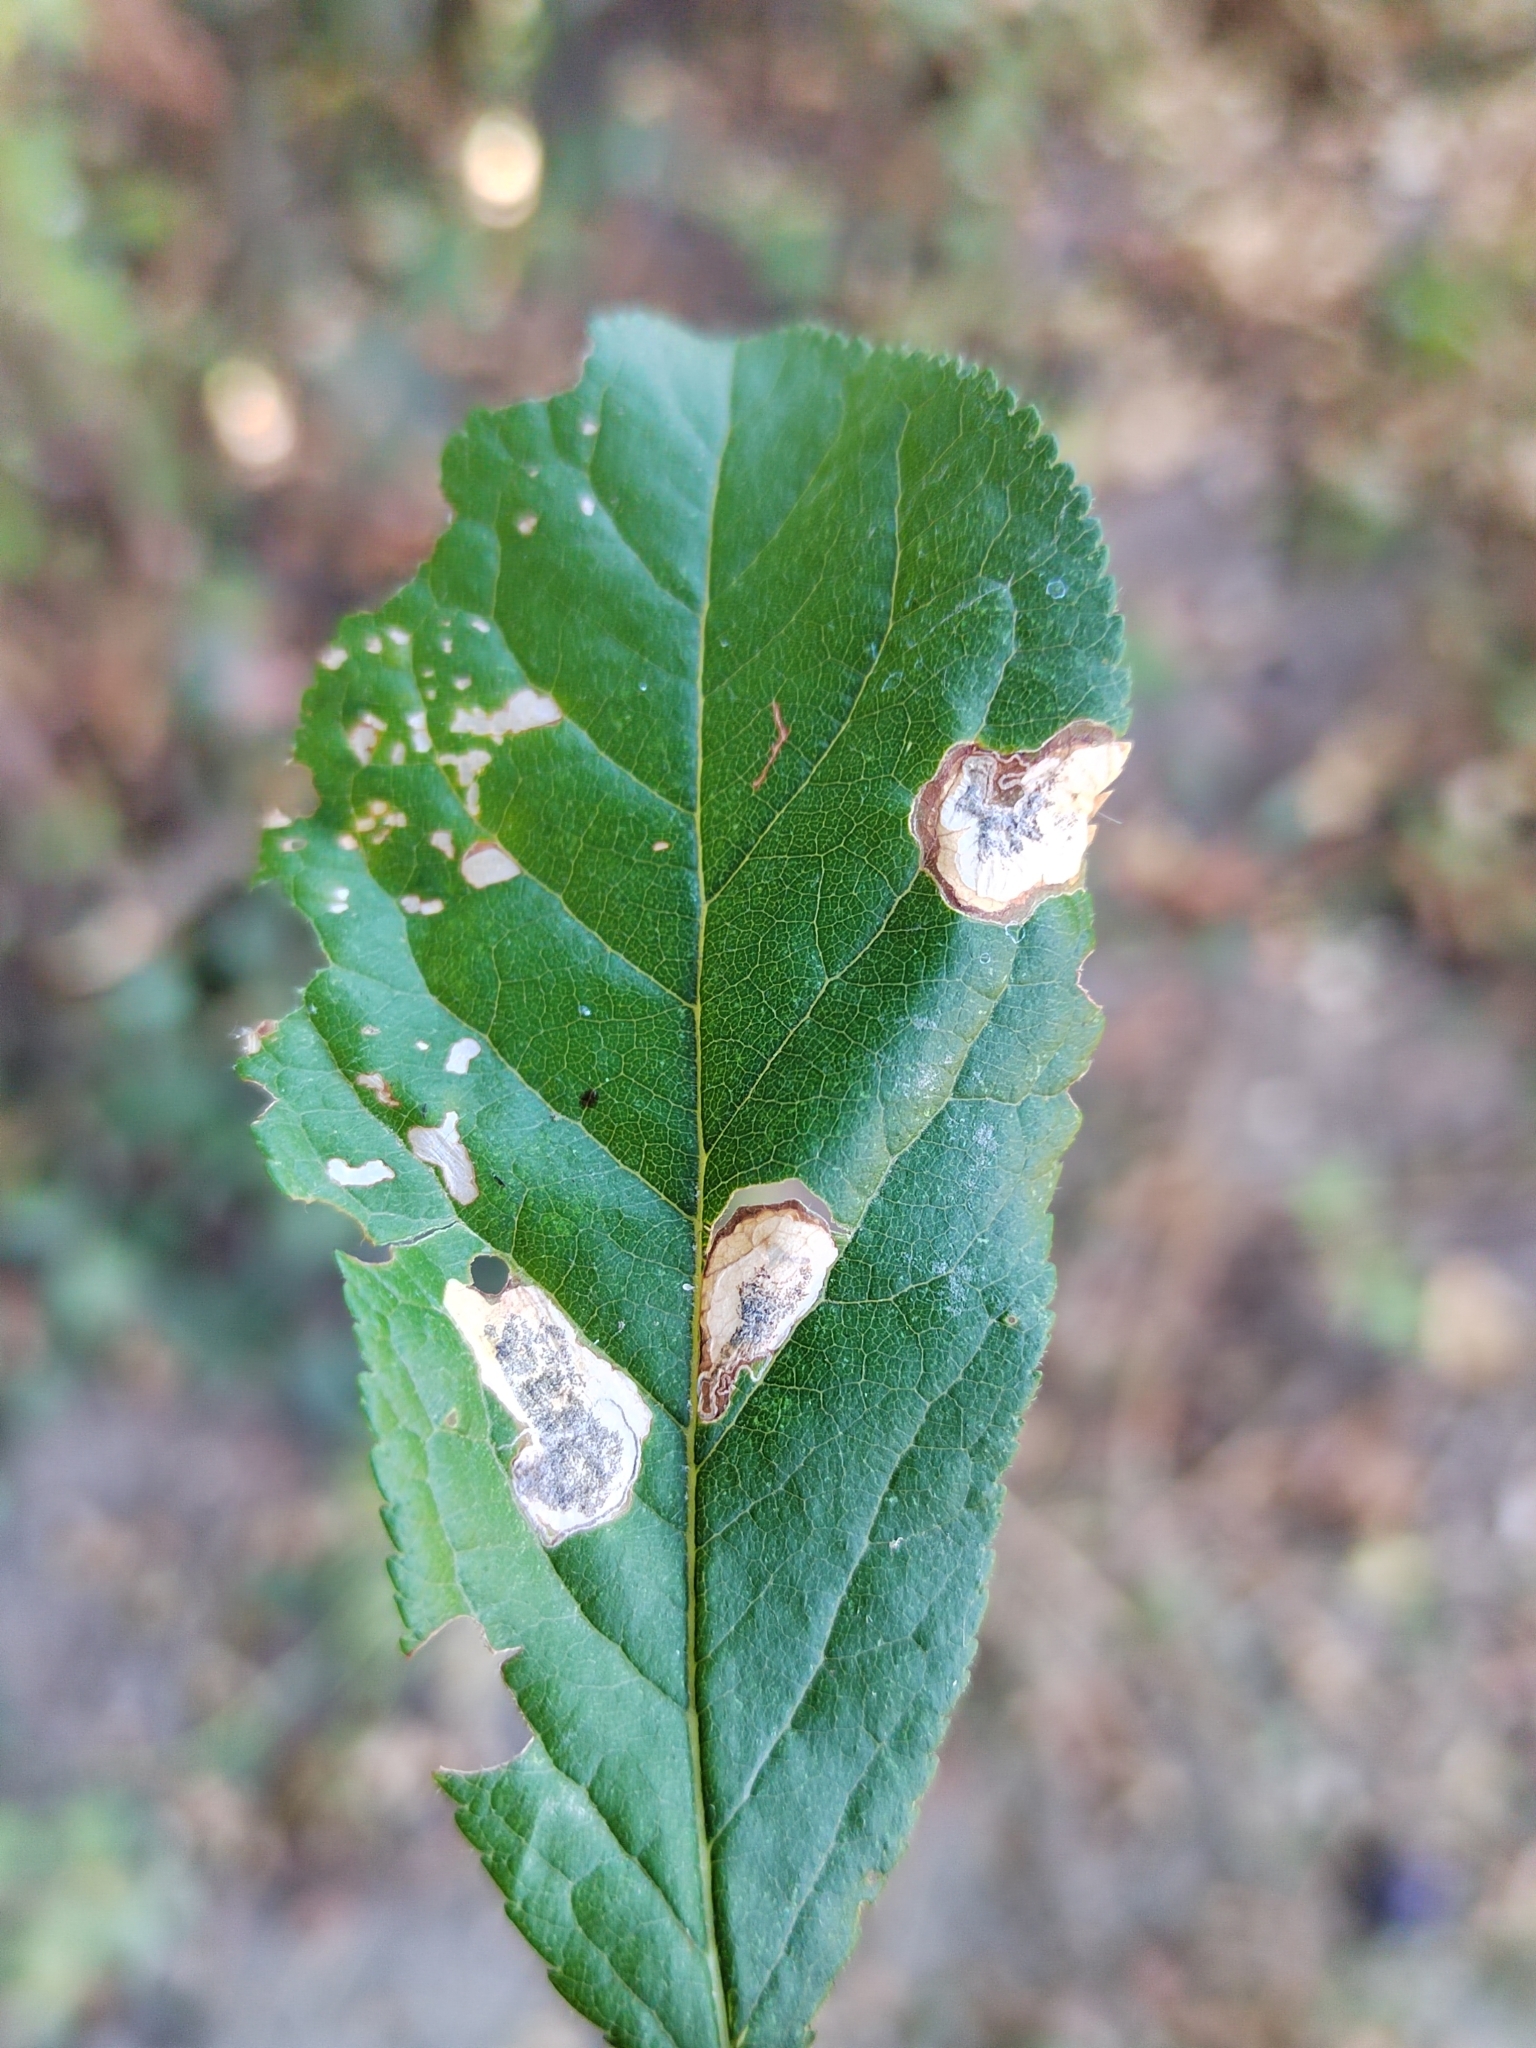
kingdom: Animalia
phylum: Arthropoda
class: Insecta
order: Lepidoptera
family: Nepticulidae
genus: Stigmella
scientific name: Stigmella plagicolella
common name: Scrubland pigmy
